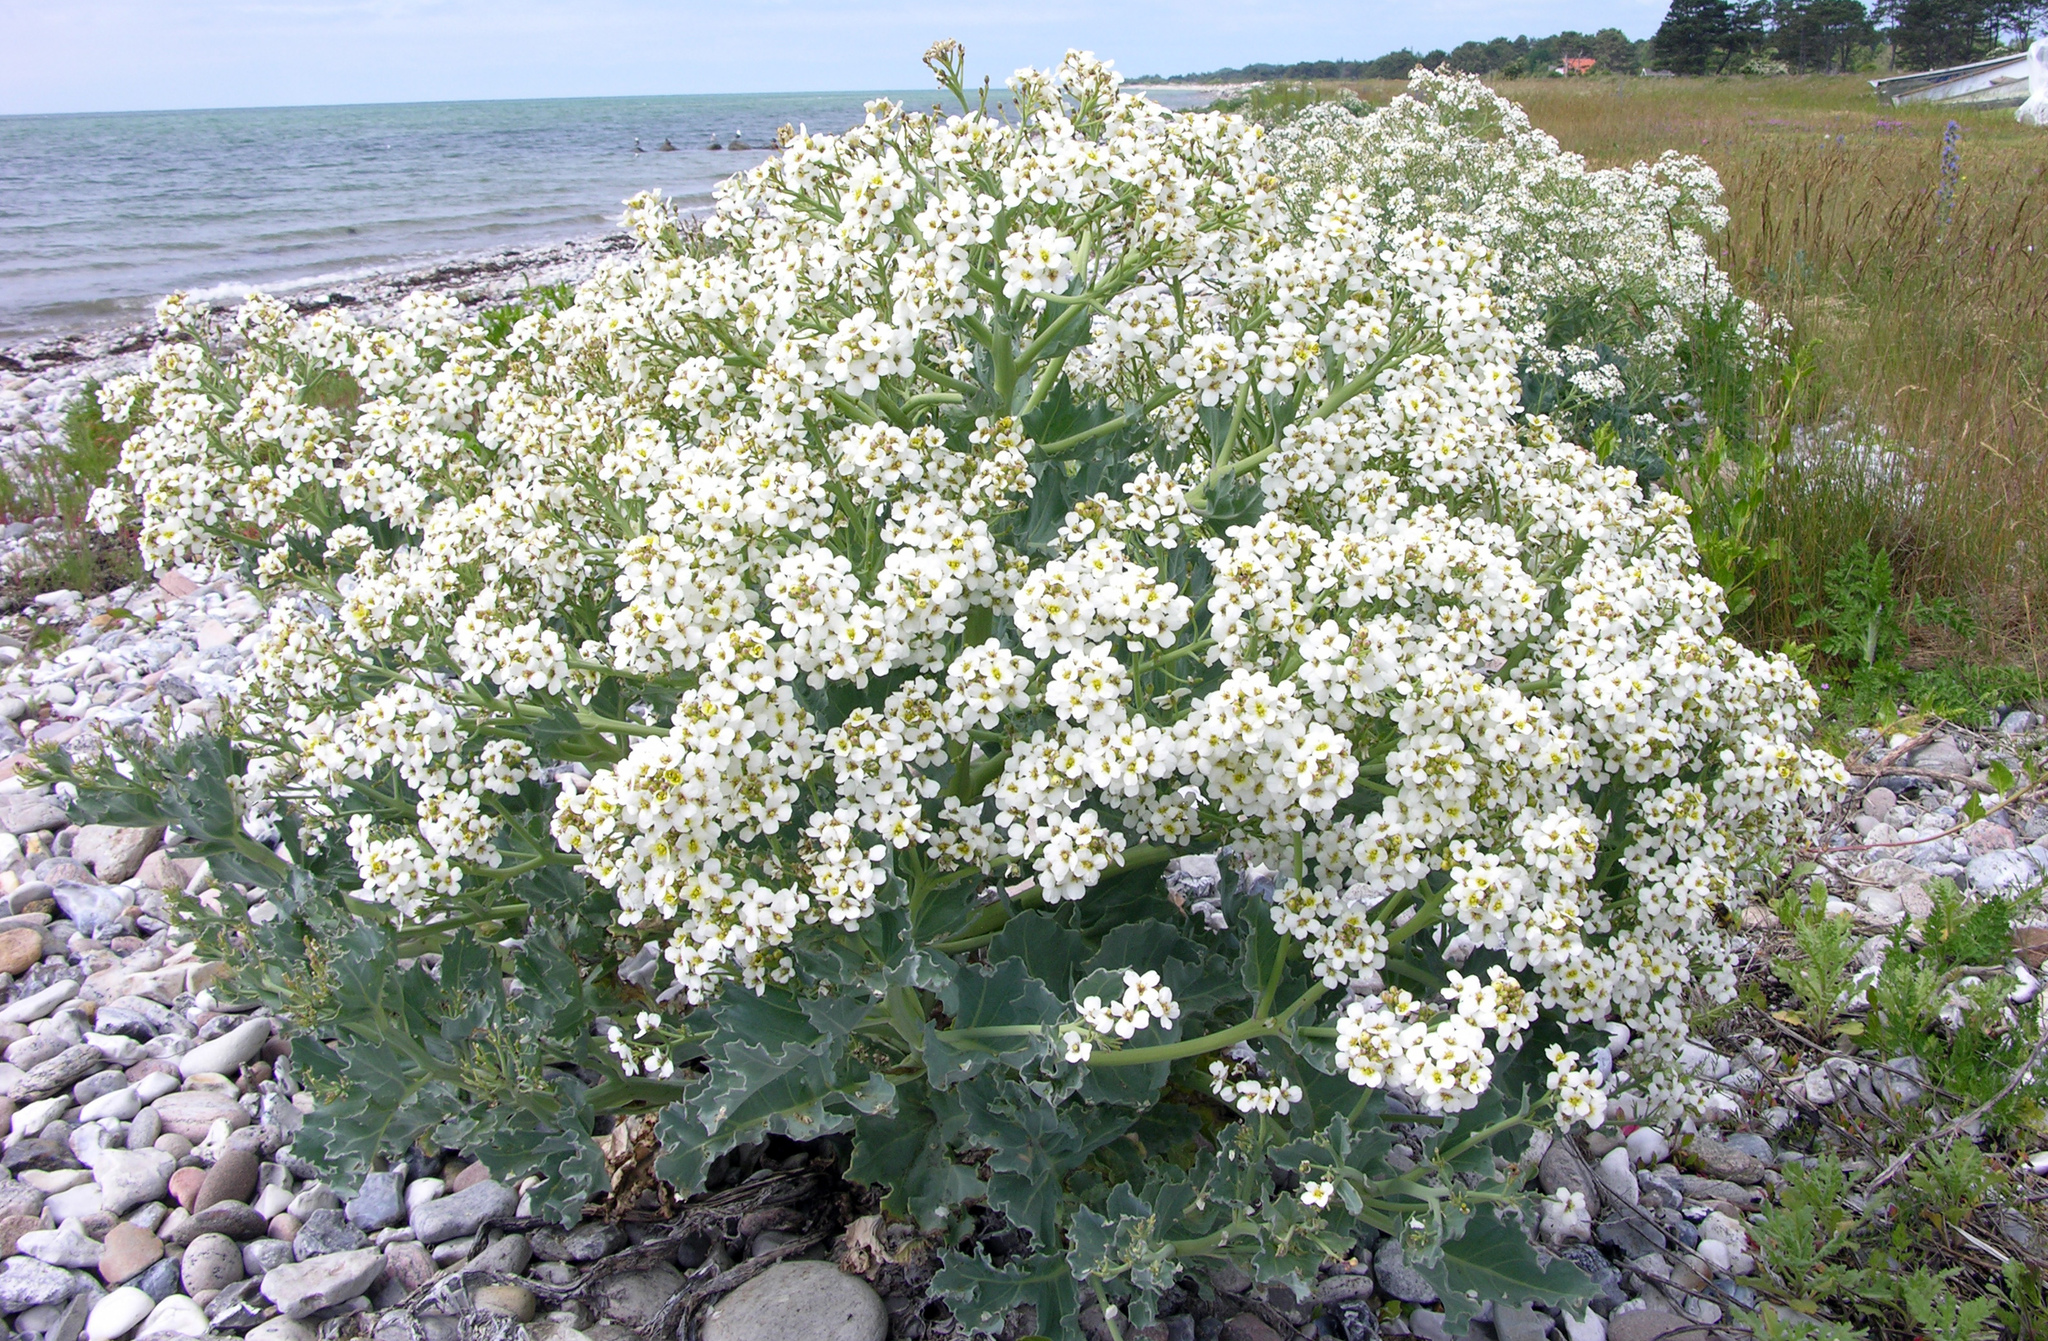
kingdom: Plantae
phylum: Tracheophyta
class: Magnoliopsida
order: Brassicales
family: Brassicaceae
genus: Crambe
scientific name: Crambe maritima
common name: Sea-kale
